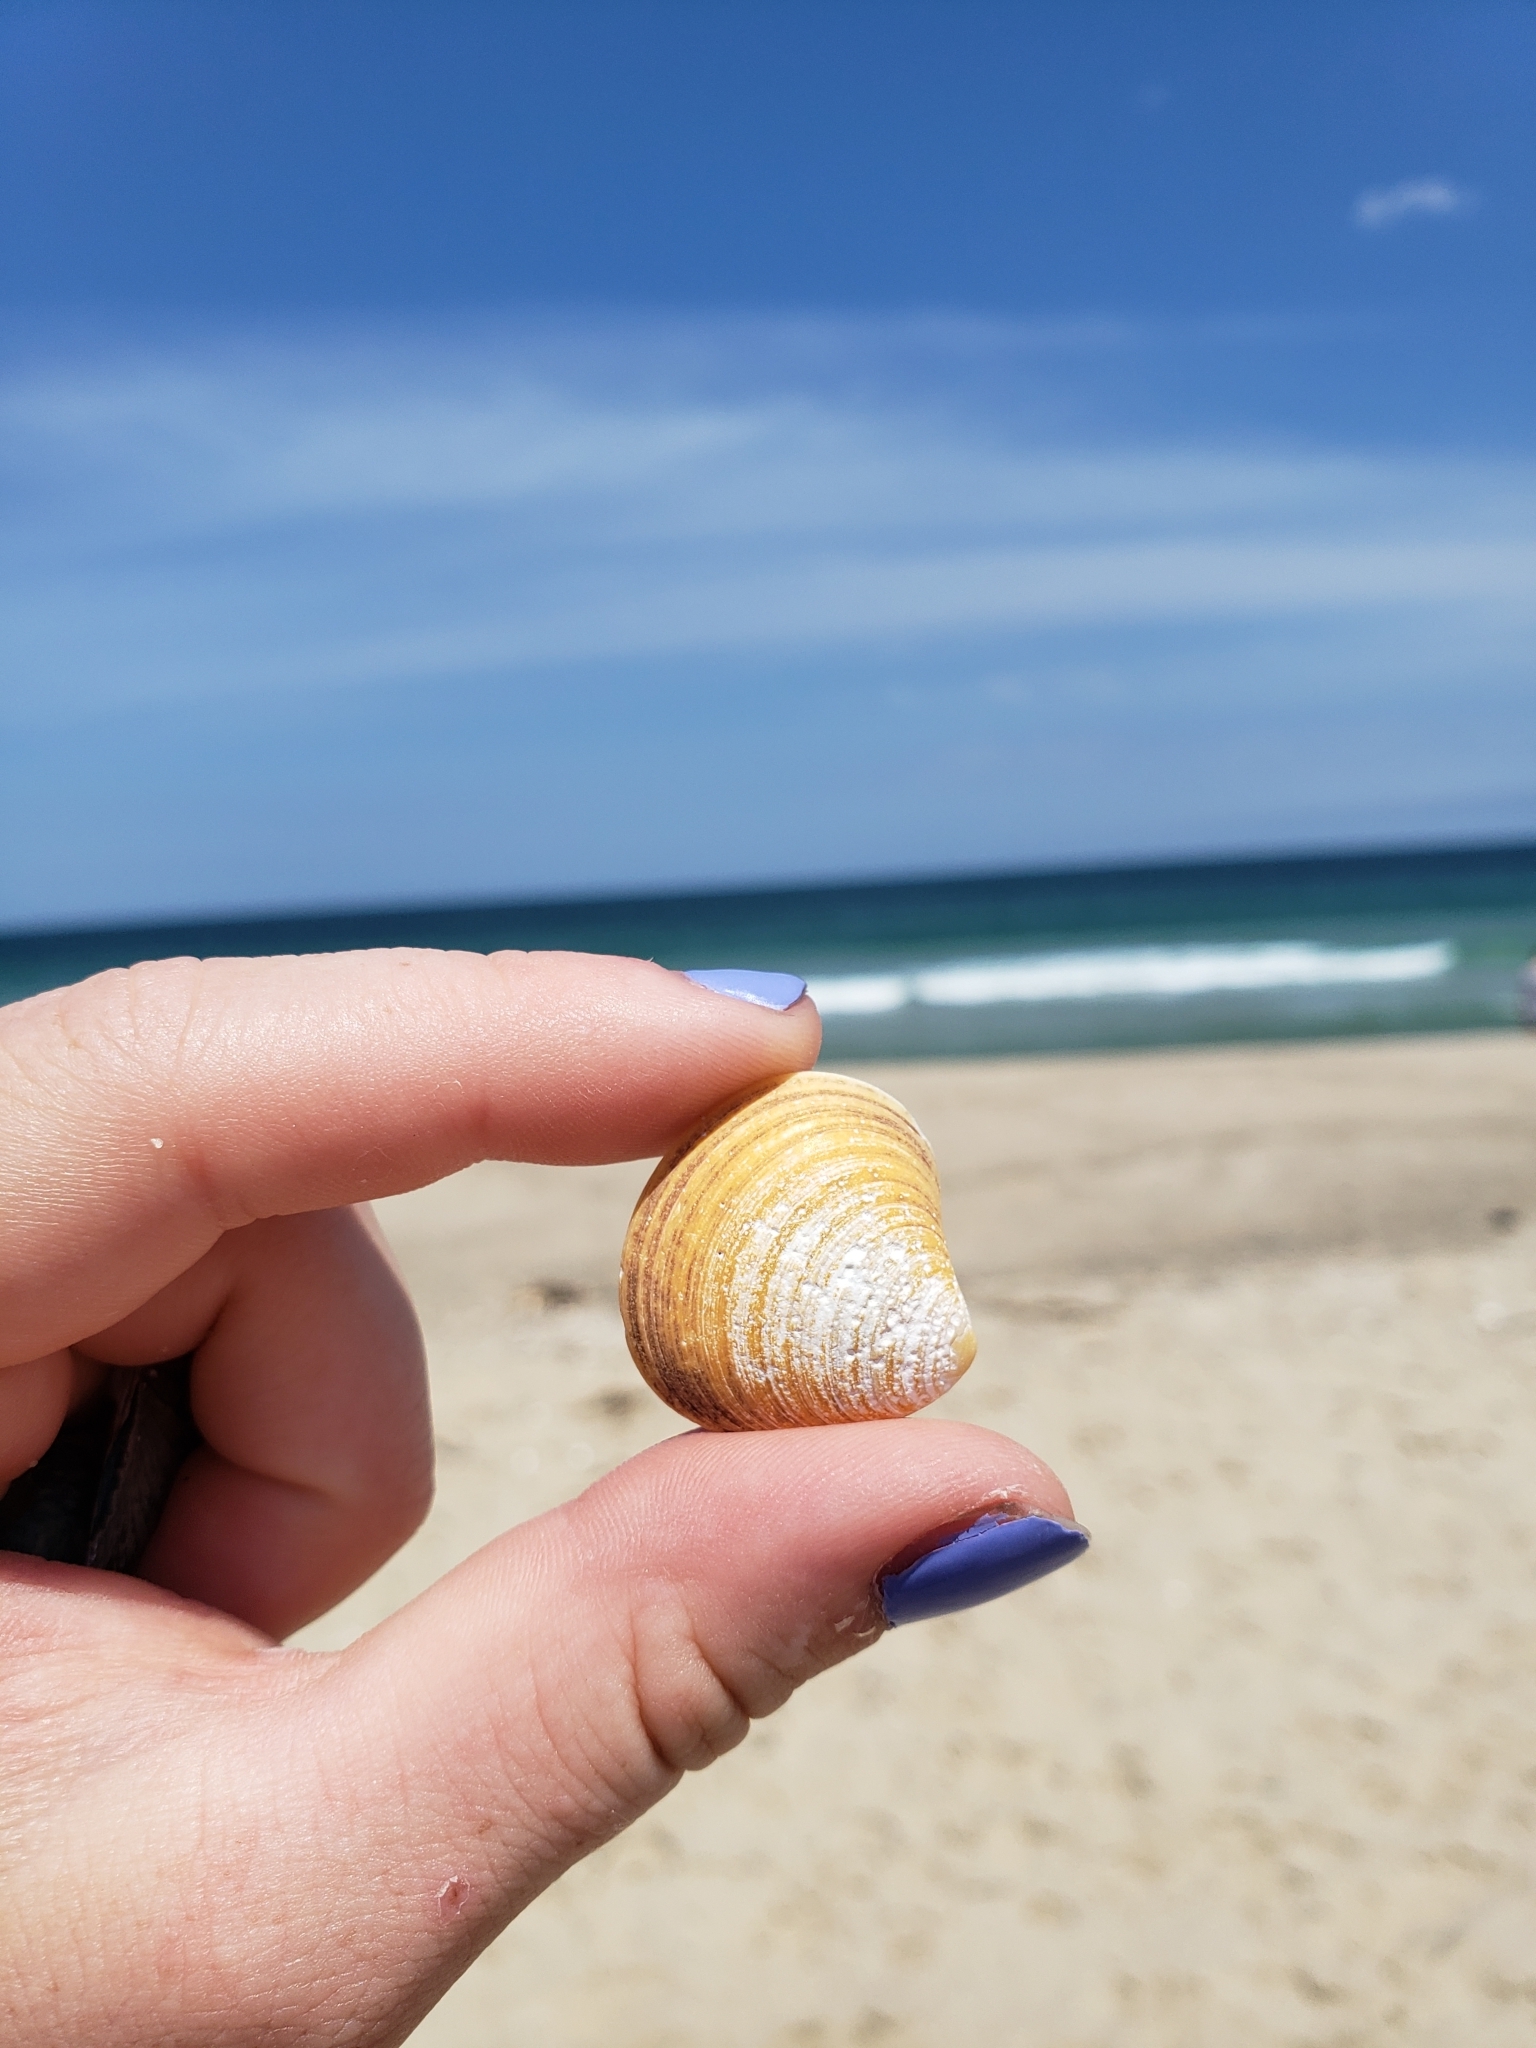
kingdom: Animalia
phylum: Mollusca
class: Bivalvia
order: Cardiida
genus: Isocrassina
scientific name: Isocrassina
